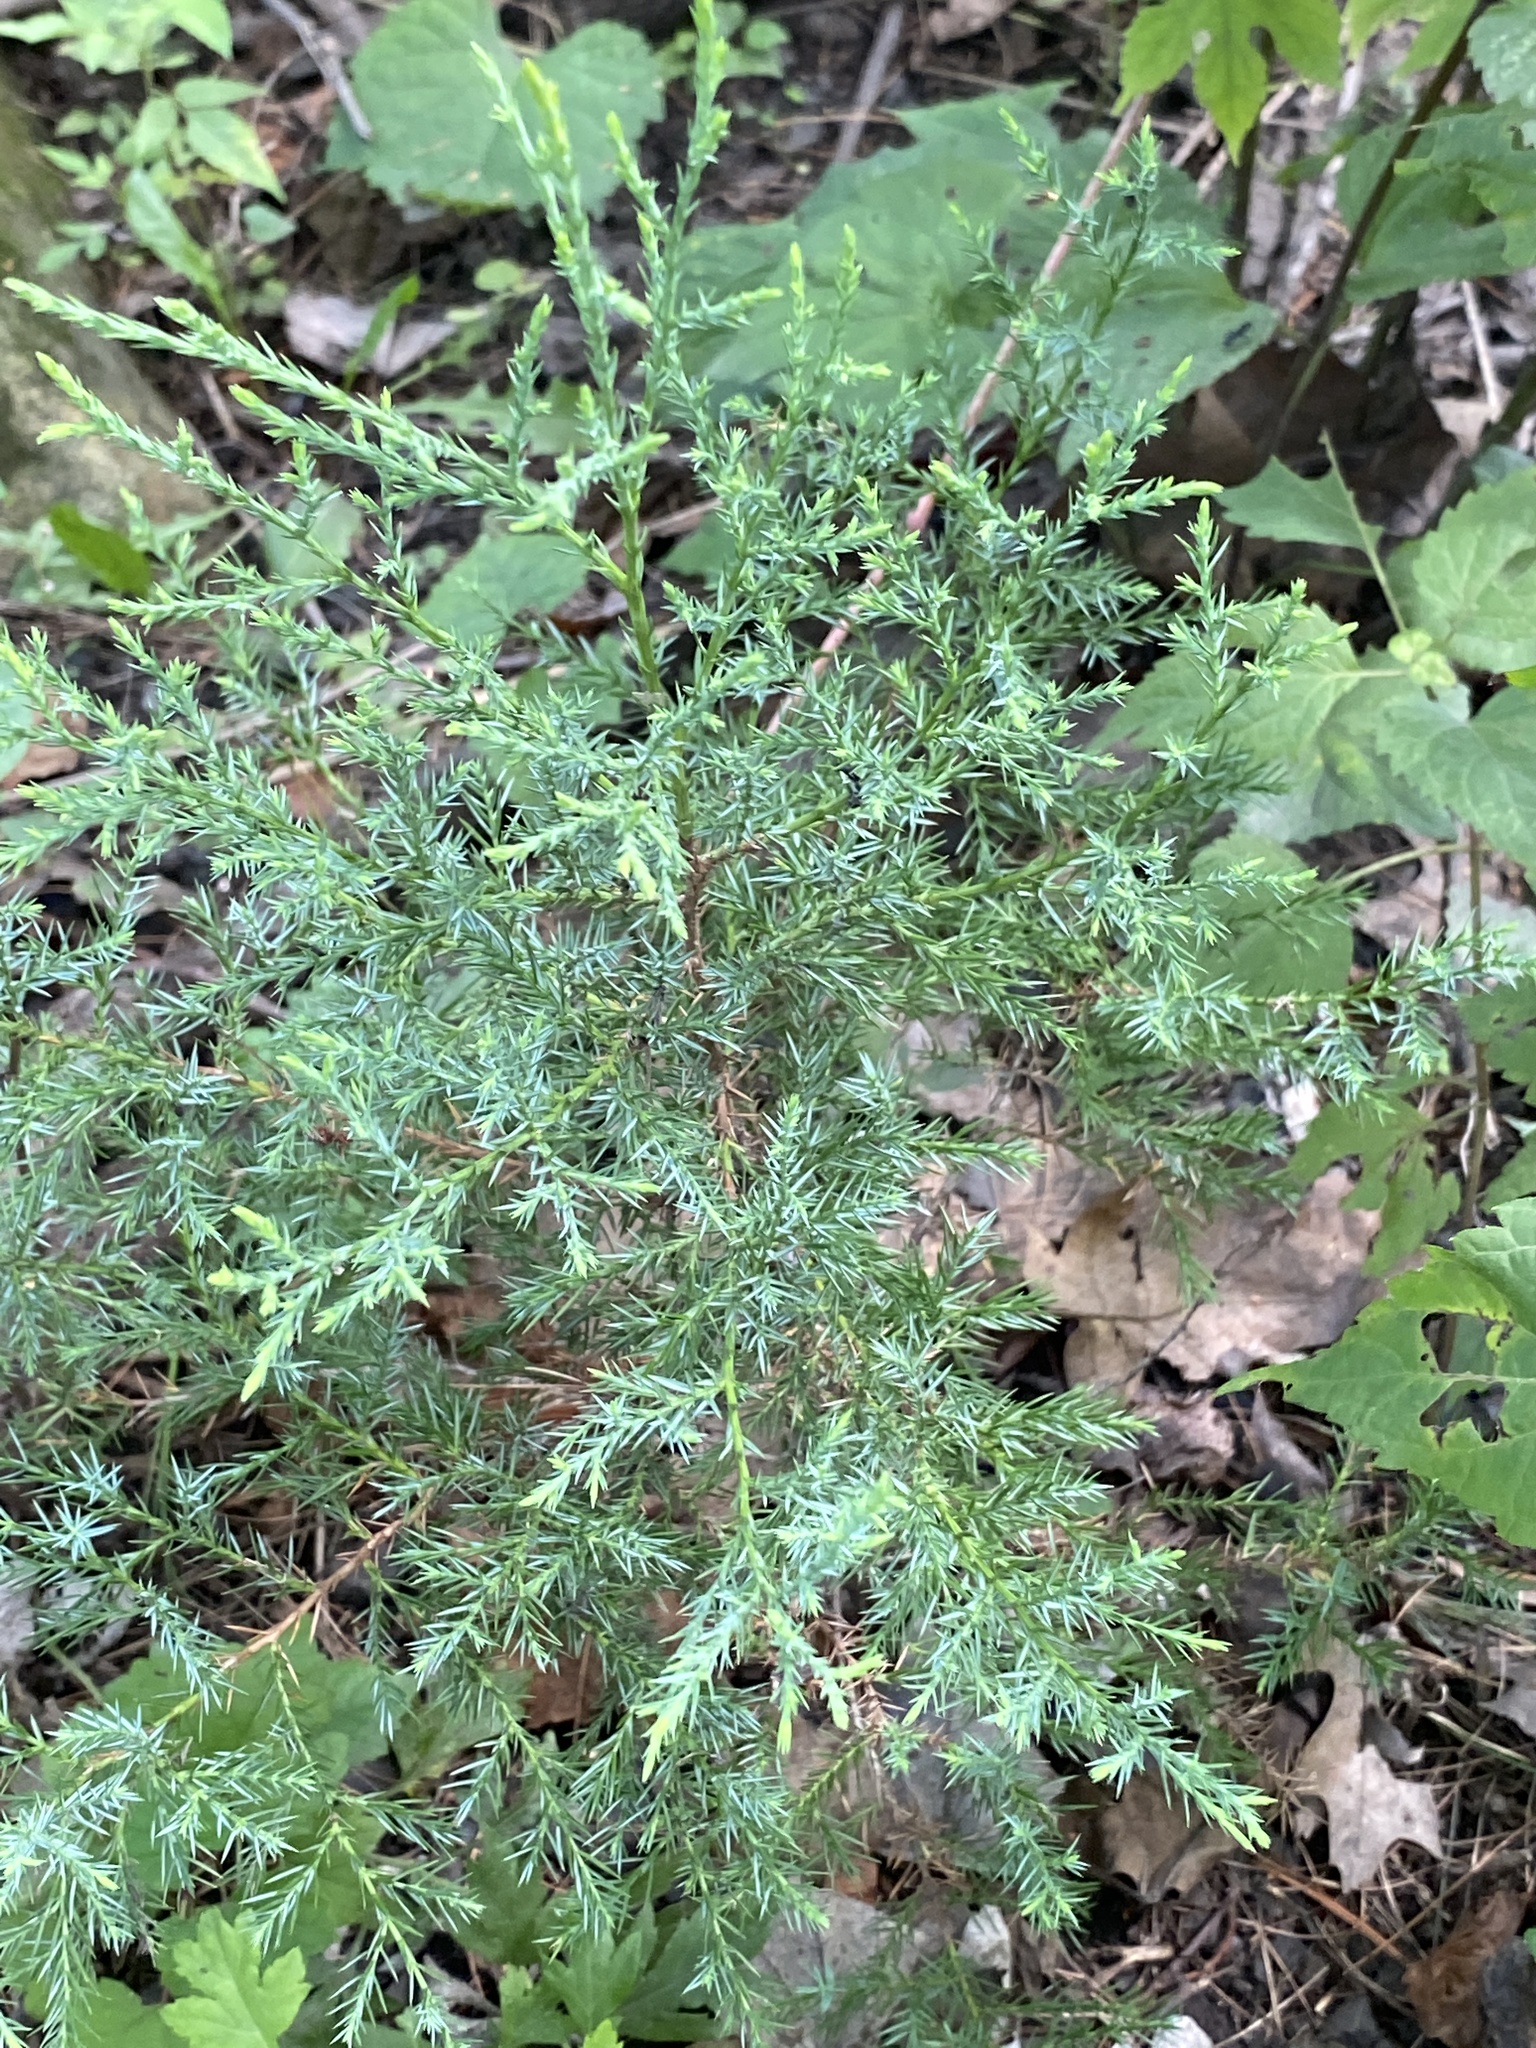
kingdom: Plantae
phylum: Tracheophyta
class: Pinopsida
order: Pinales
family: Cupressaceae
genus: Juniperus
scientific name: Juniperus virginiana
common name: Red juniper
